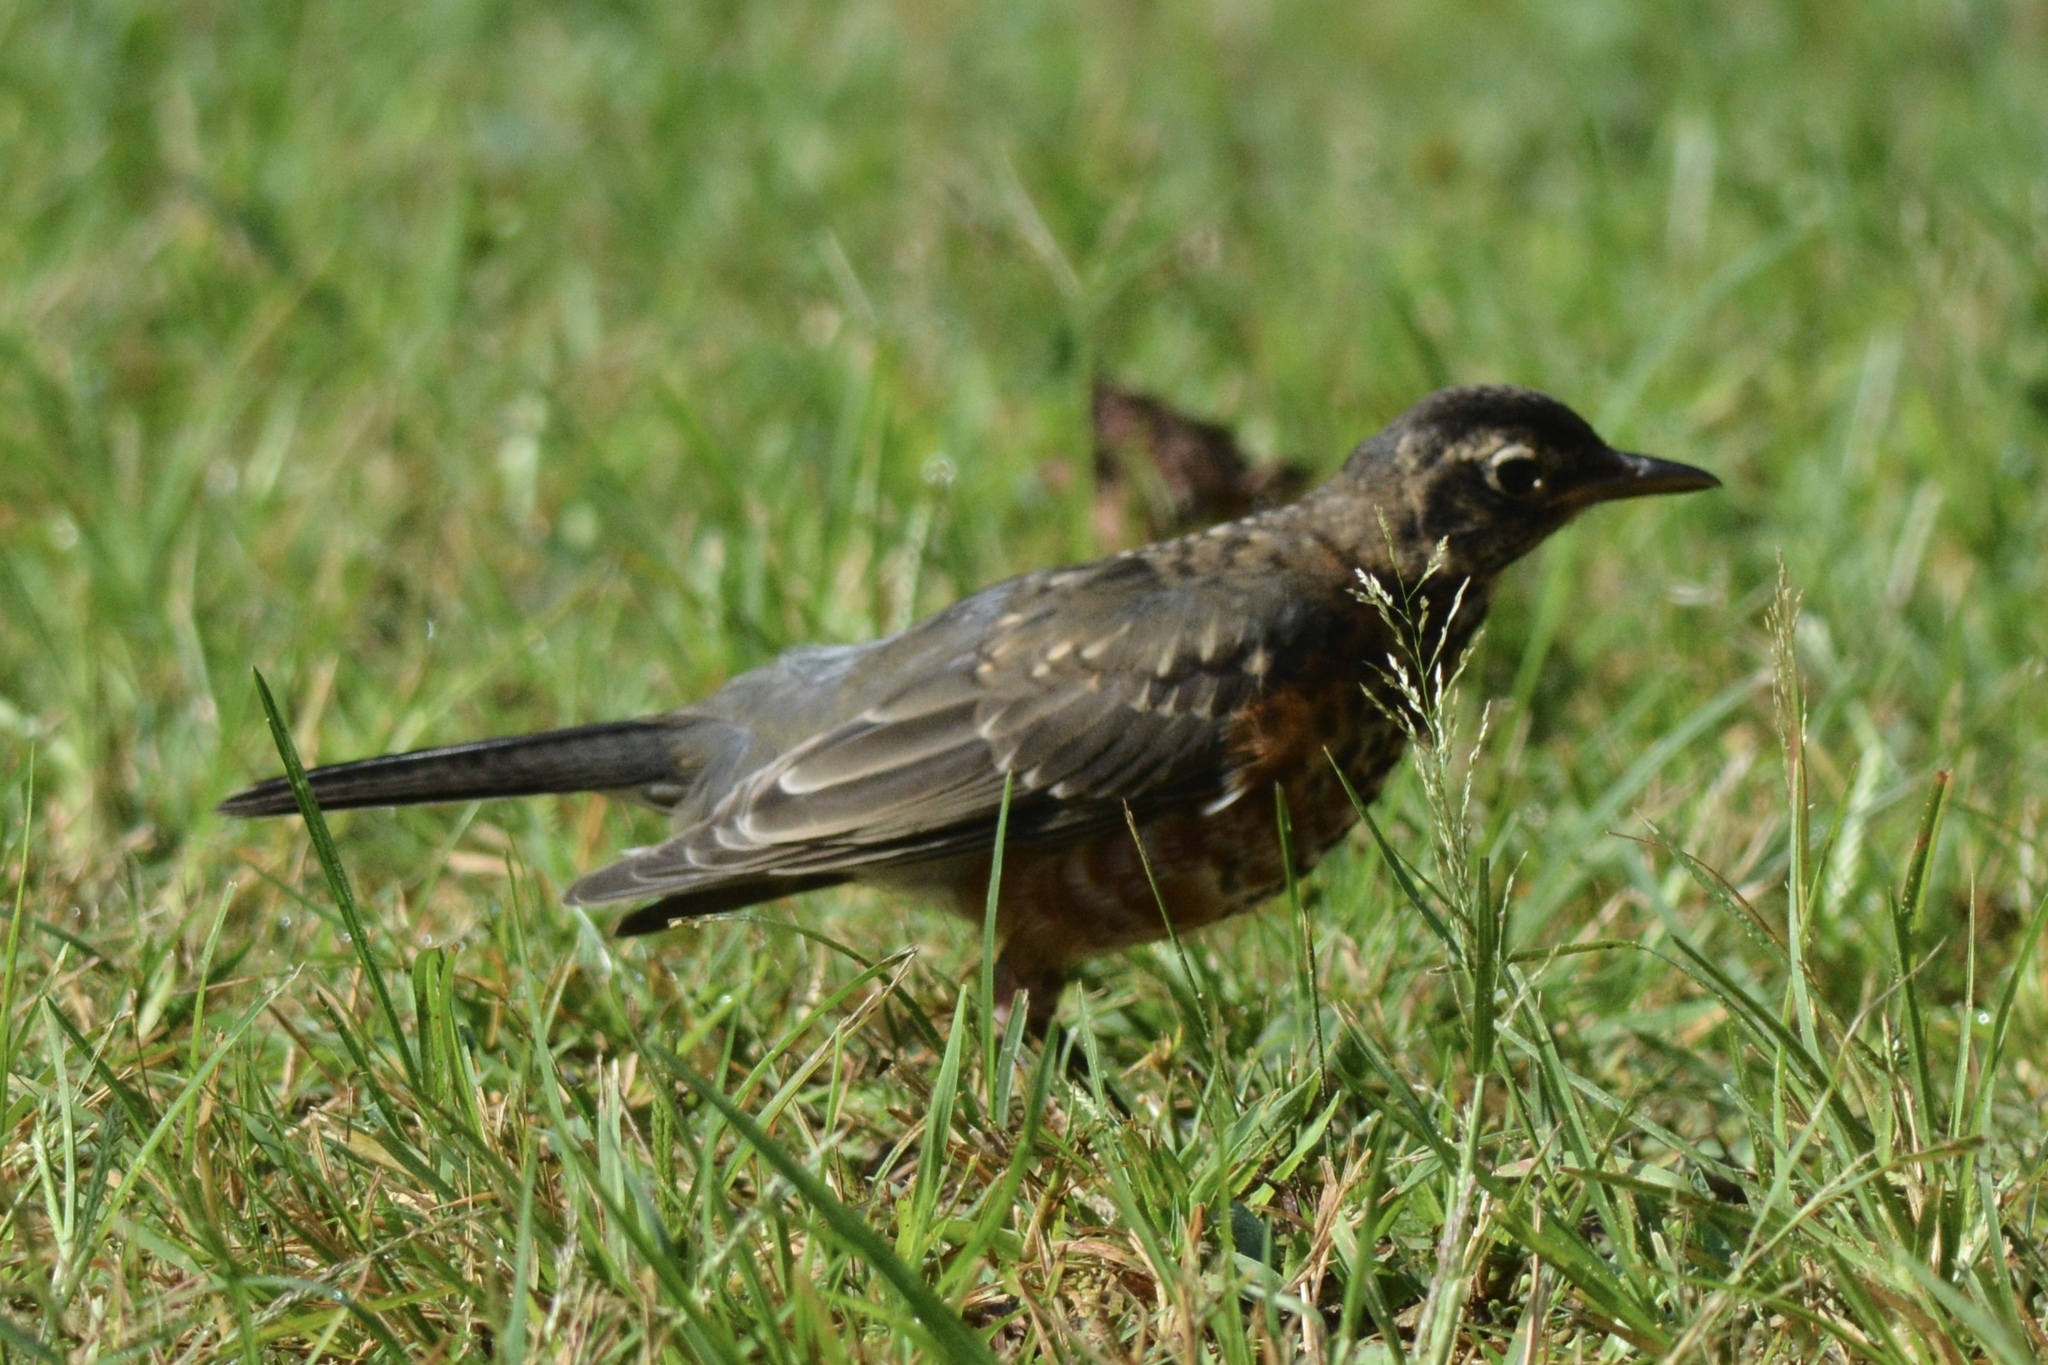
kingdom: Animalia
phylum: Chordata
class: Aves
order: Passeriformes
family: Turdidae
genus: Turdus
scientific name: Turdus migratorius
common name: American robin
